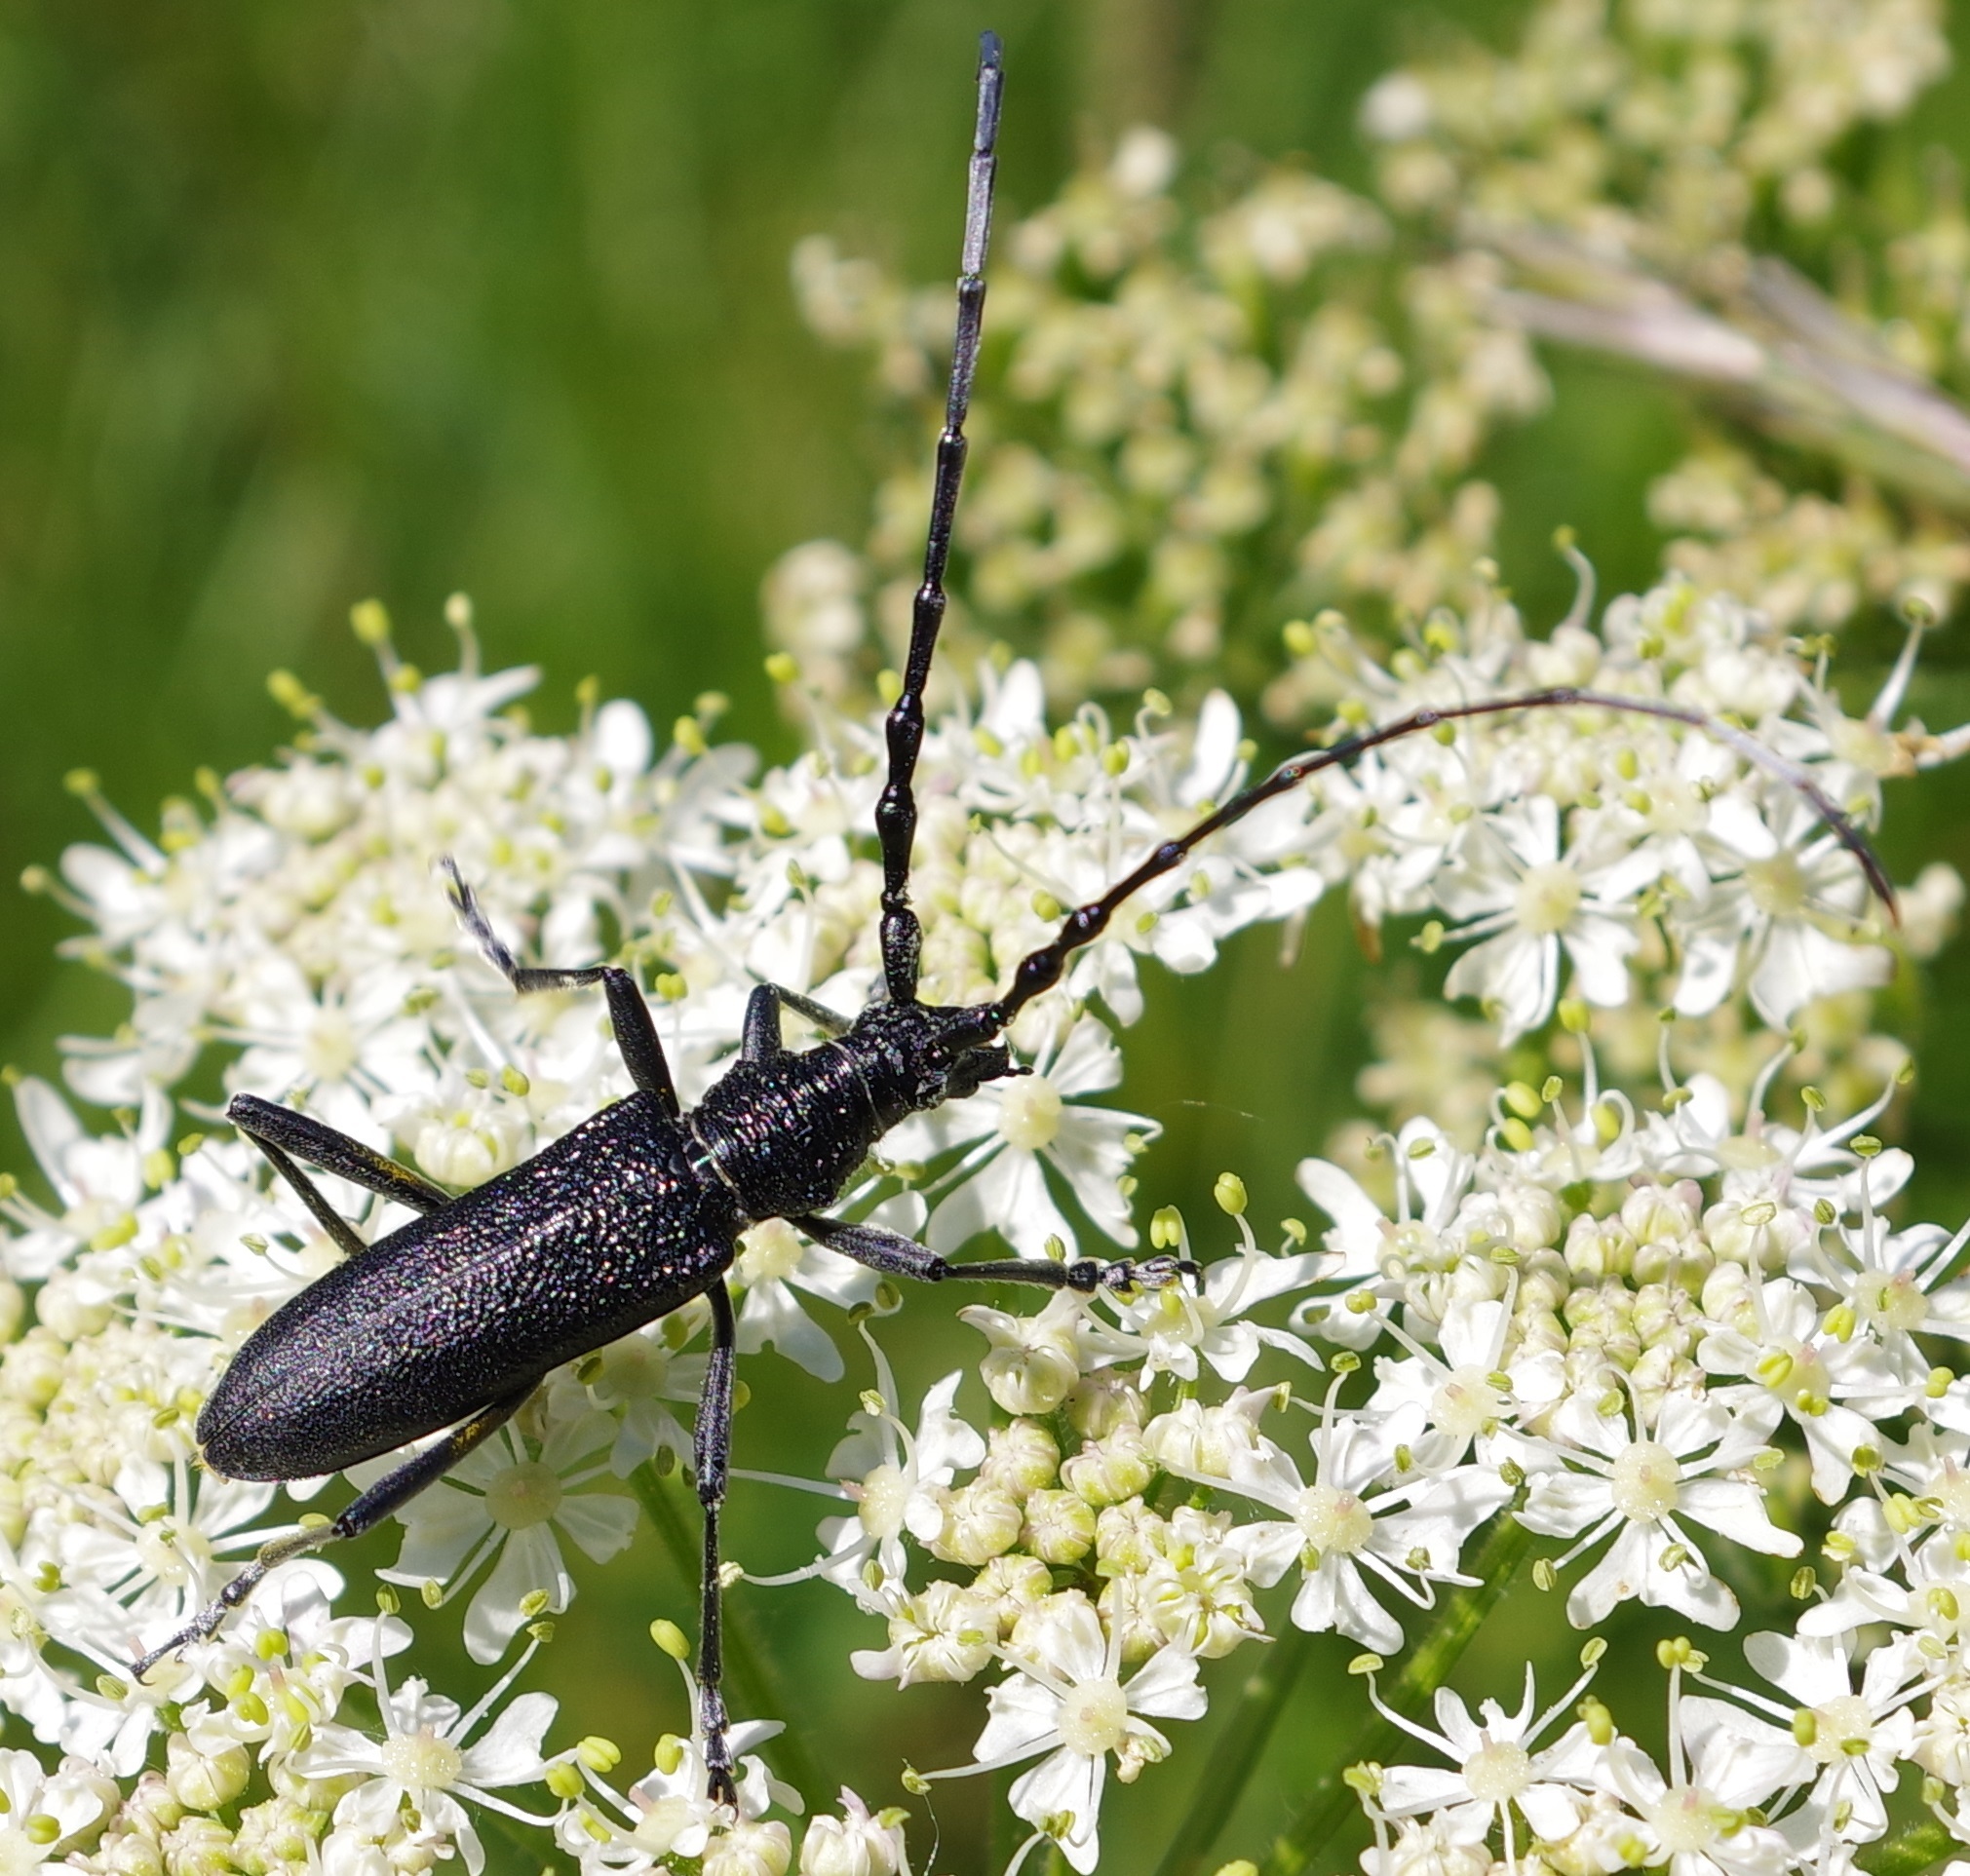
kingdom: Animalia
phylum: Arthropoda
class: Insecta
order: Coleoptera
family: Cerambycidae
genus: Cerambyx
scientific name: Cerambyx scopolii
